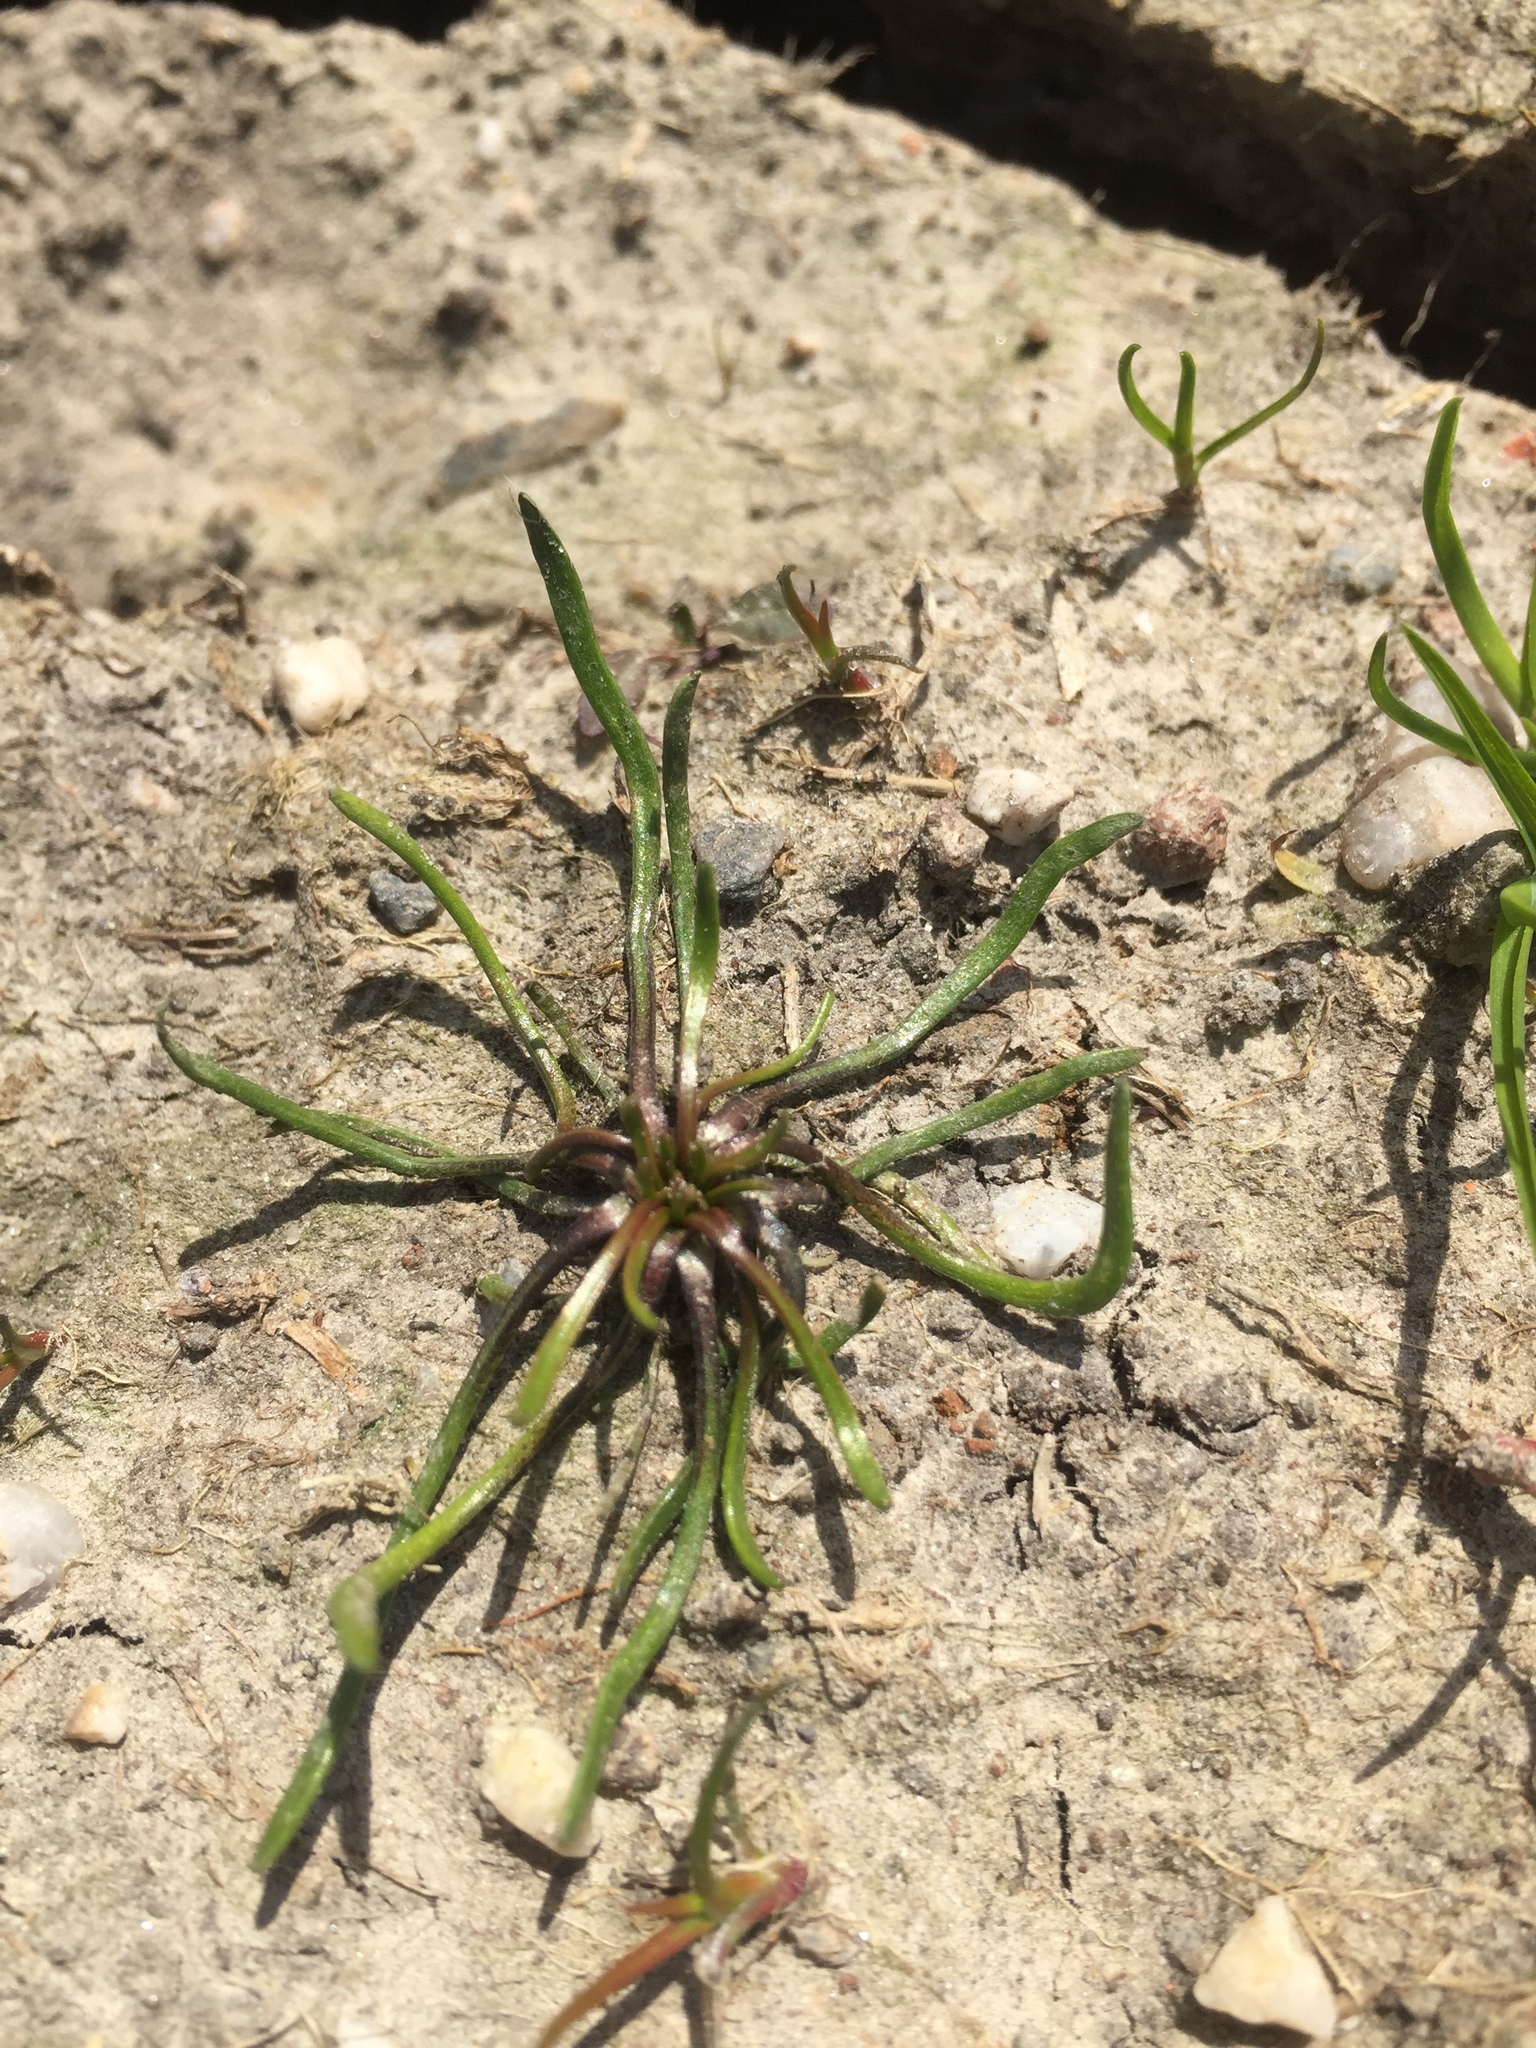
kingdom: Plantae
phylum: Tracheophyta
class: Magnoliopsida
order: Ranunculales
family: Ranunculaceae
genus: Myosurus
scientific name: Myosurus minimus
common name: Mousetail
